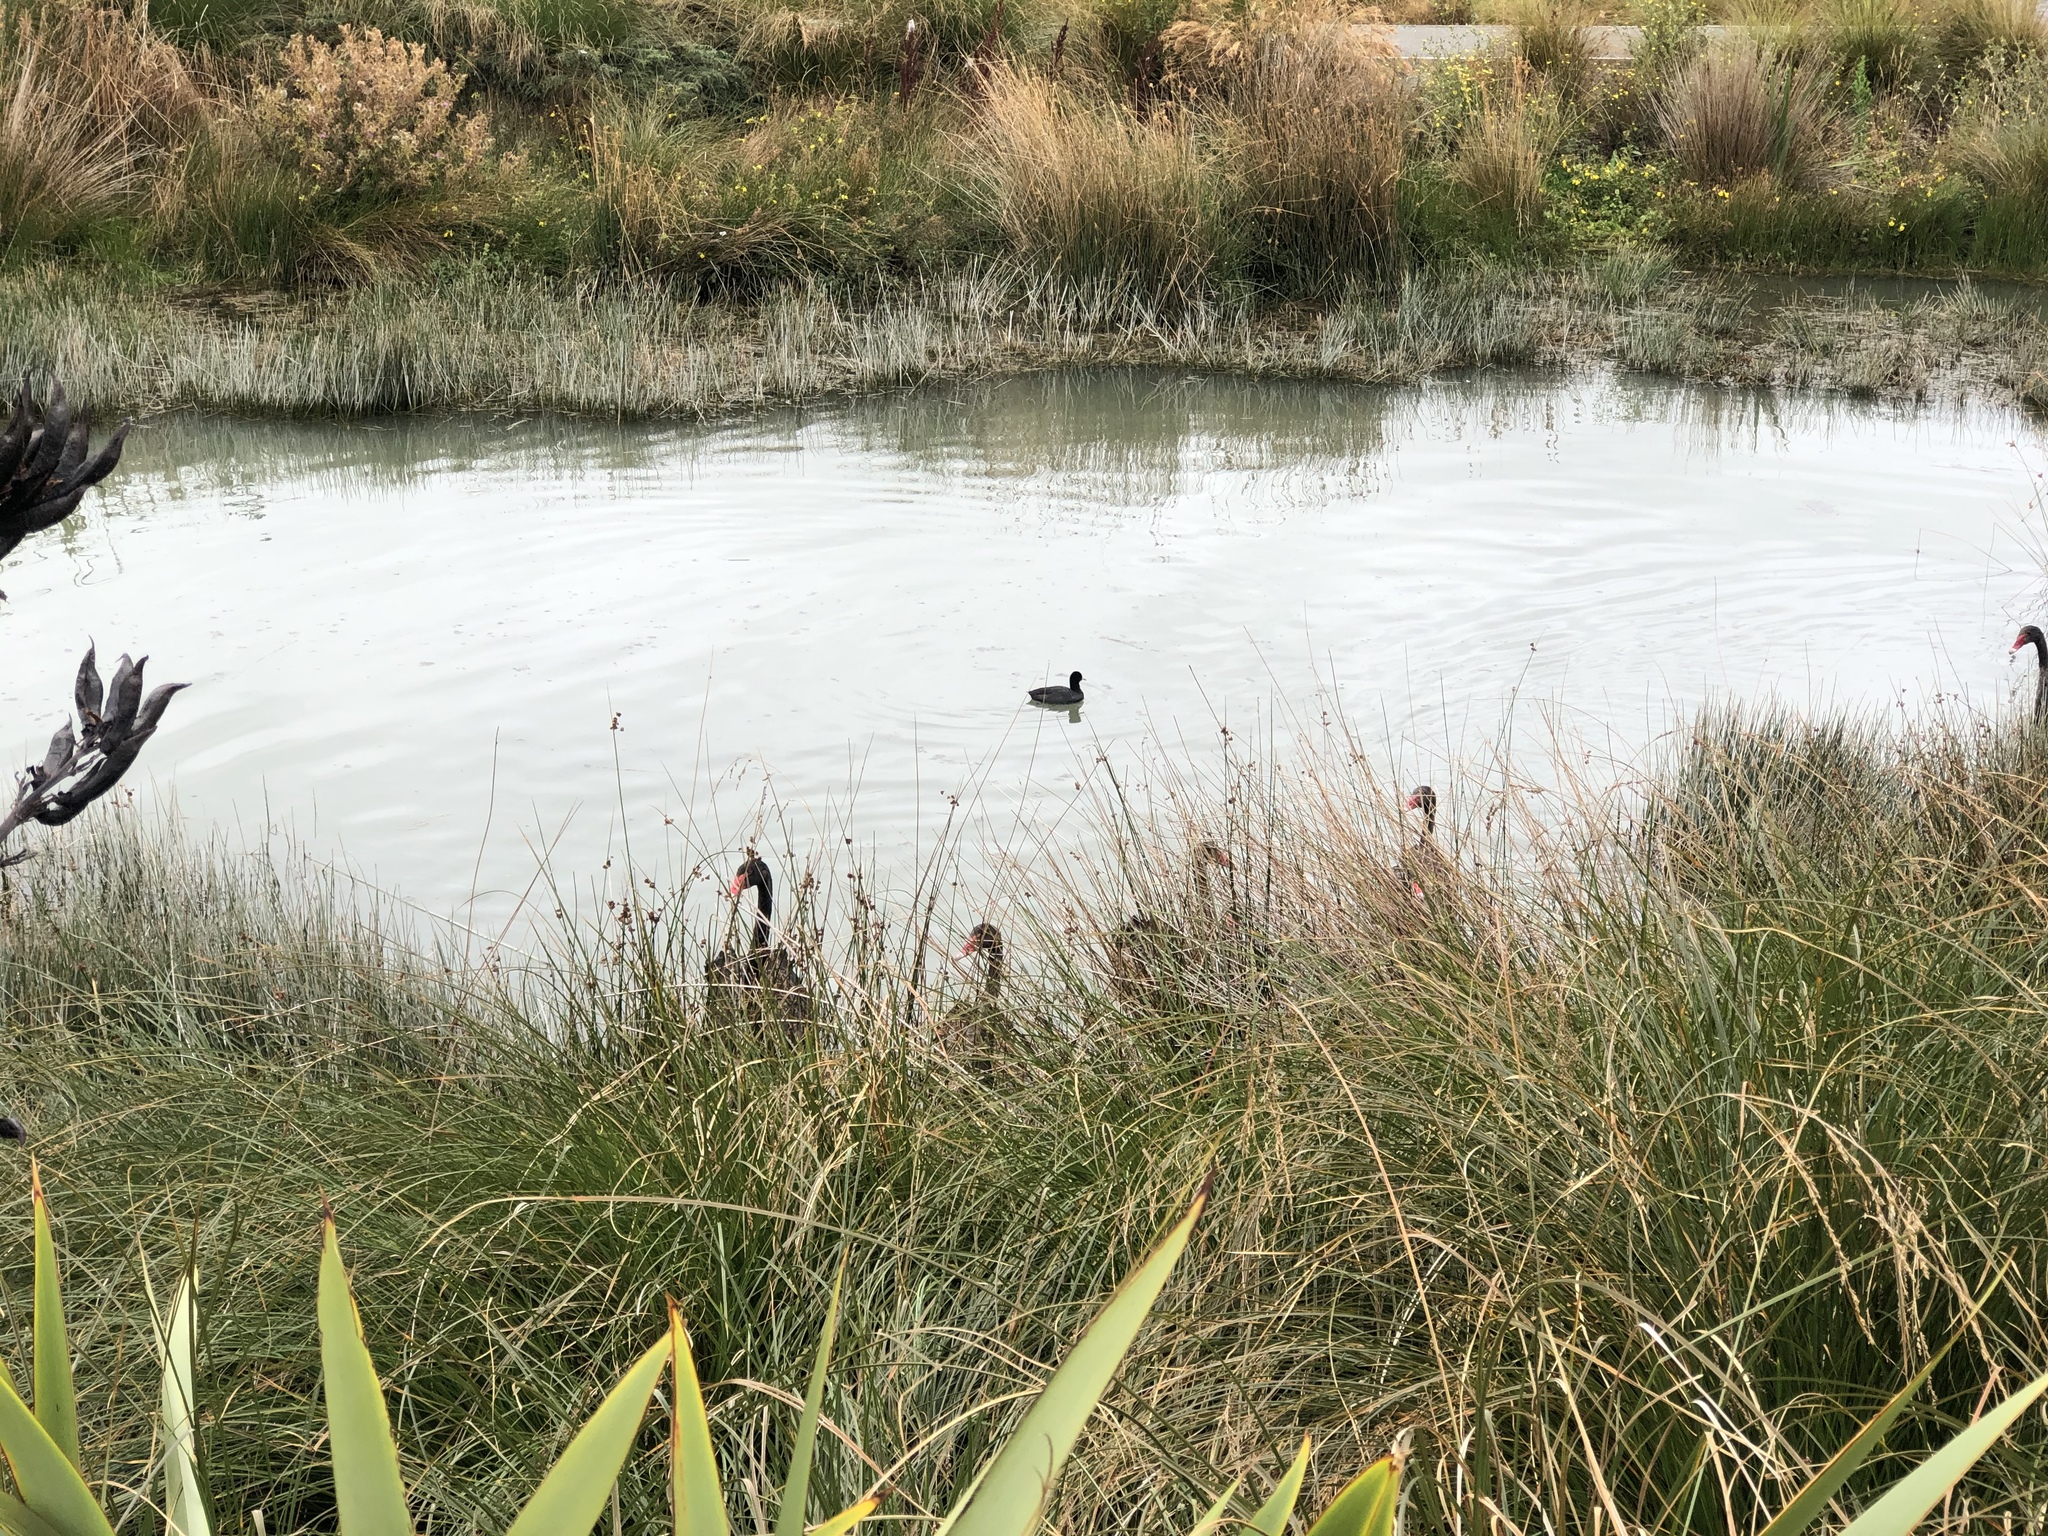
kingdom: Animalia
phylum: Chordata
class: Aves
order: Anseriformes
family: Anatidae
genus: Cygnus
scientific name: Cygnus atratus
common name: Black swan
